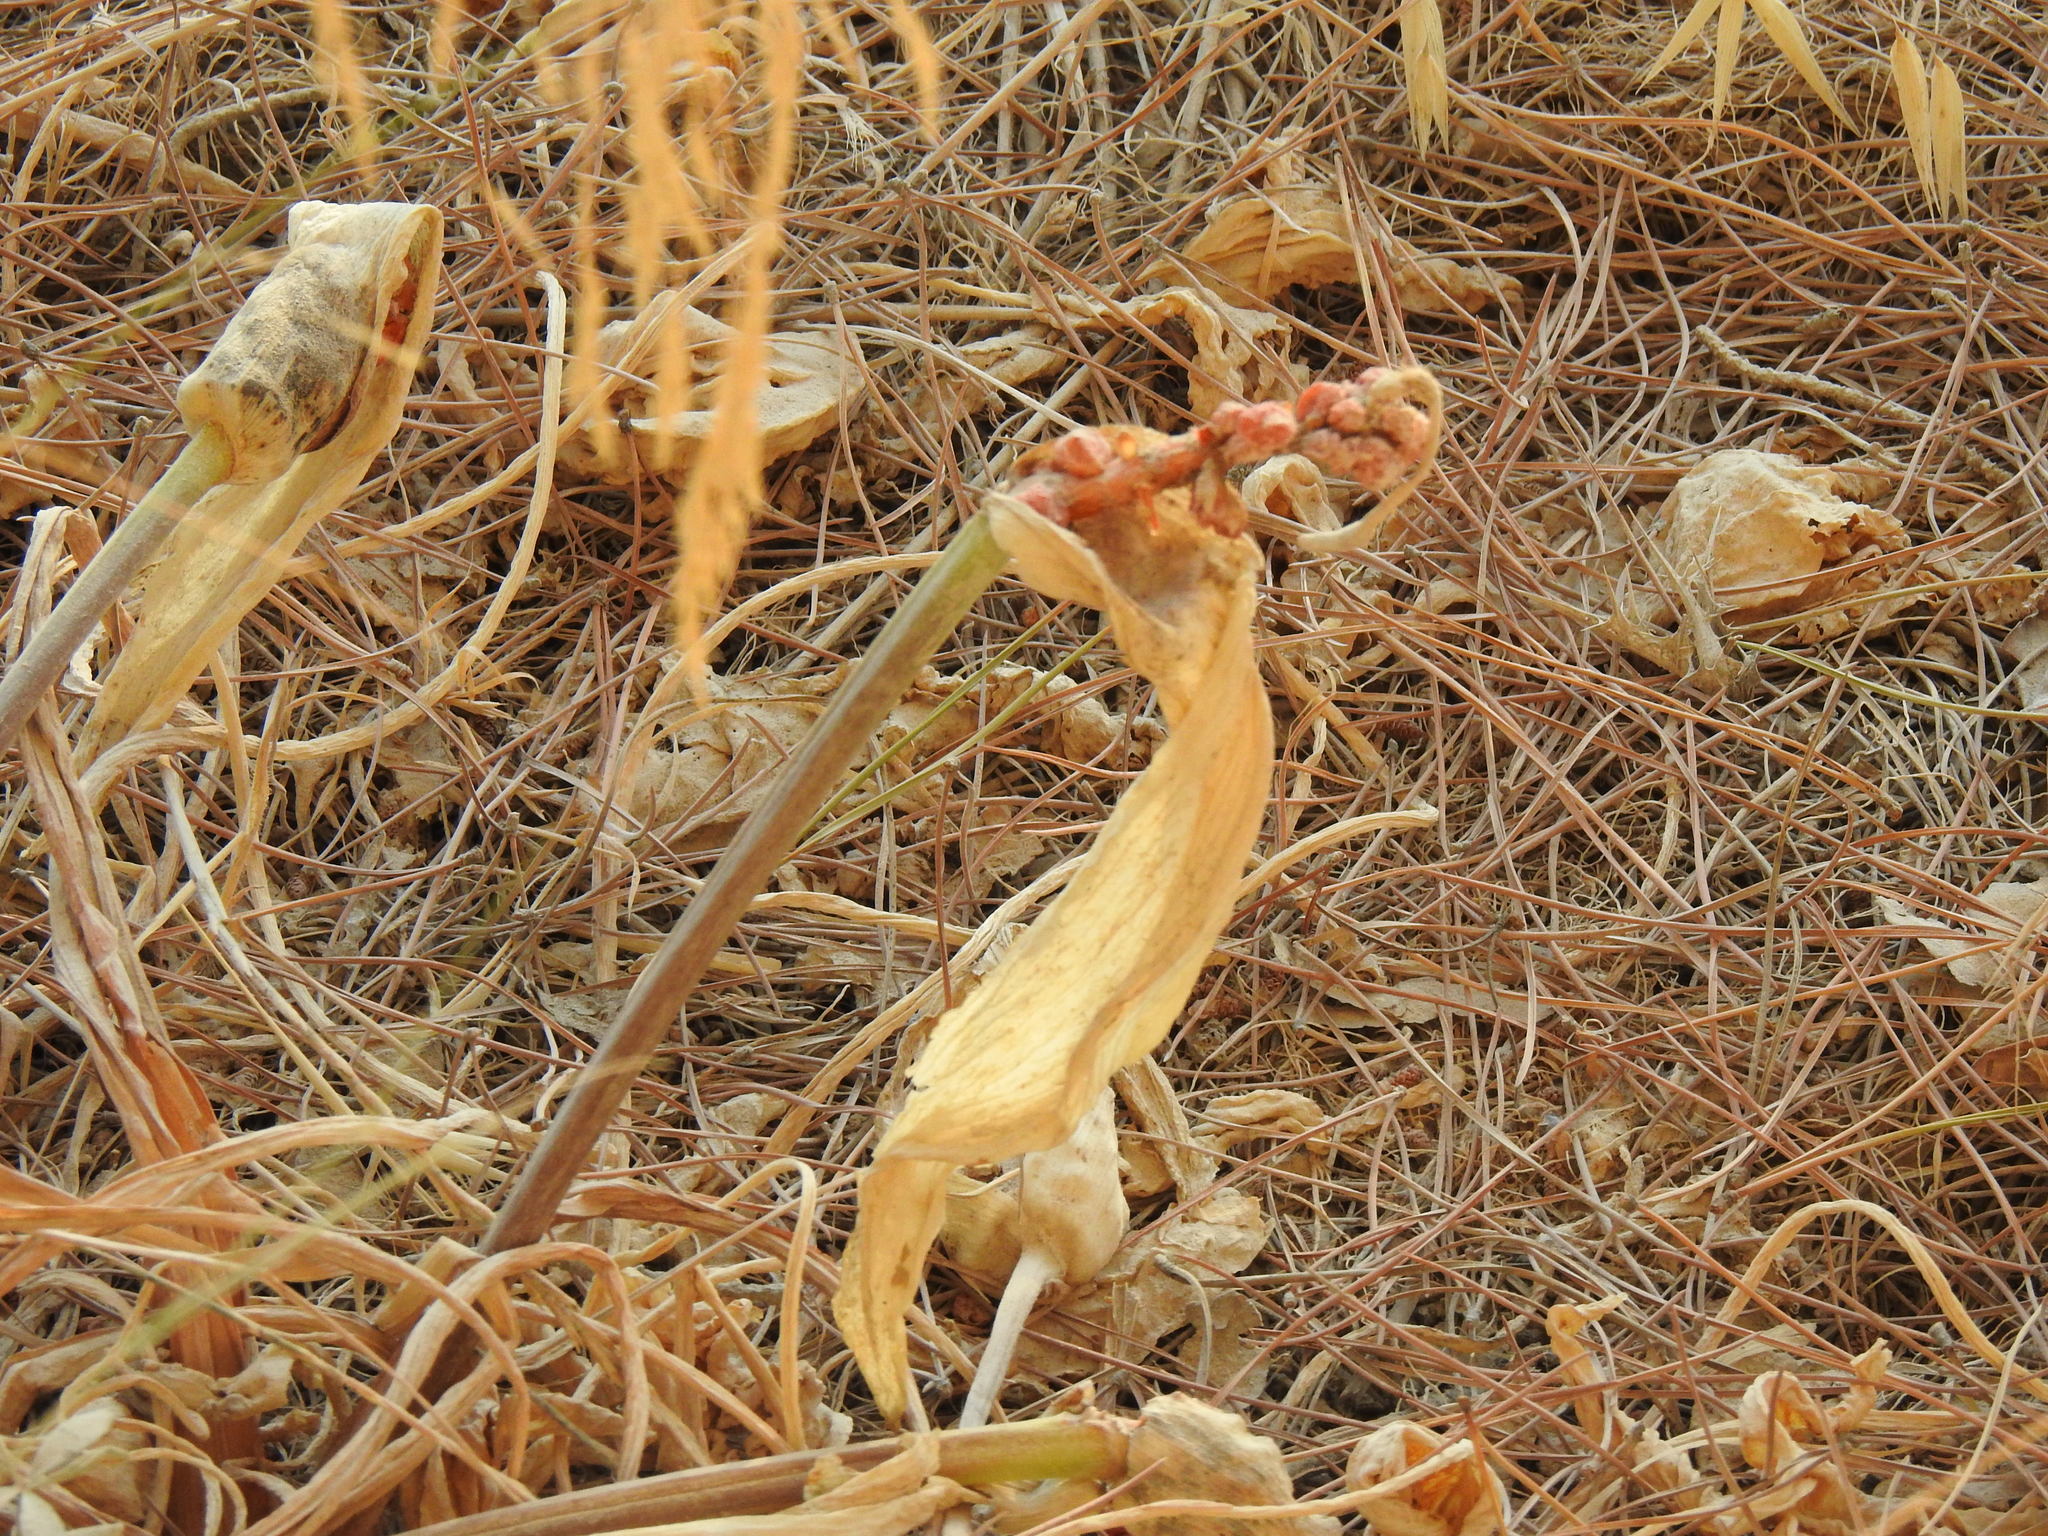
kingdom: Plantae
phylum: Tracheophyta
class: Liliopsida
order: Alismatales
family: Araceae
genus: Arum
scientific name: Arum italicum
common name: Italian lords-and-ladies
